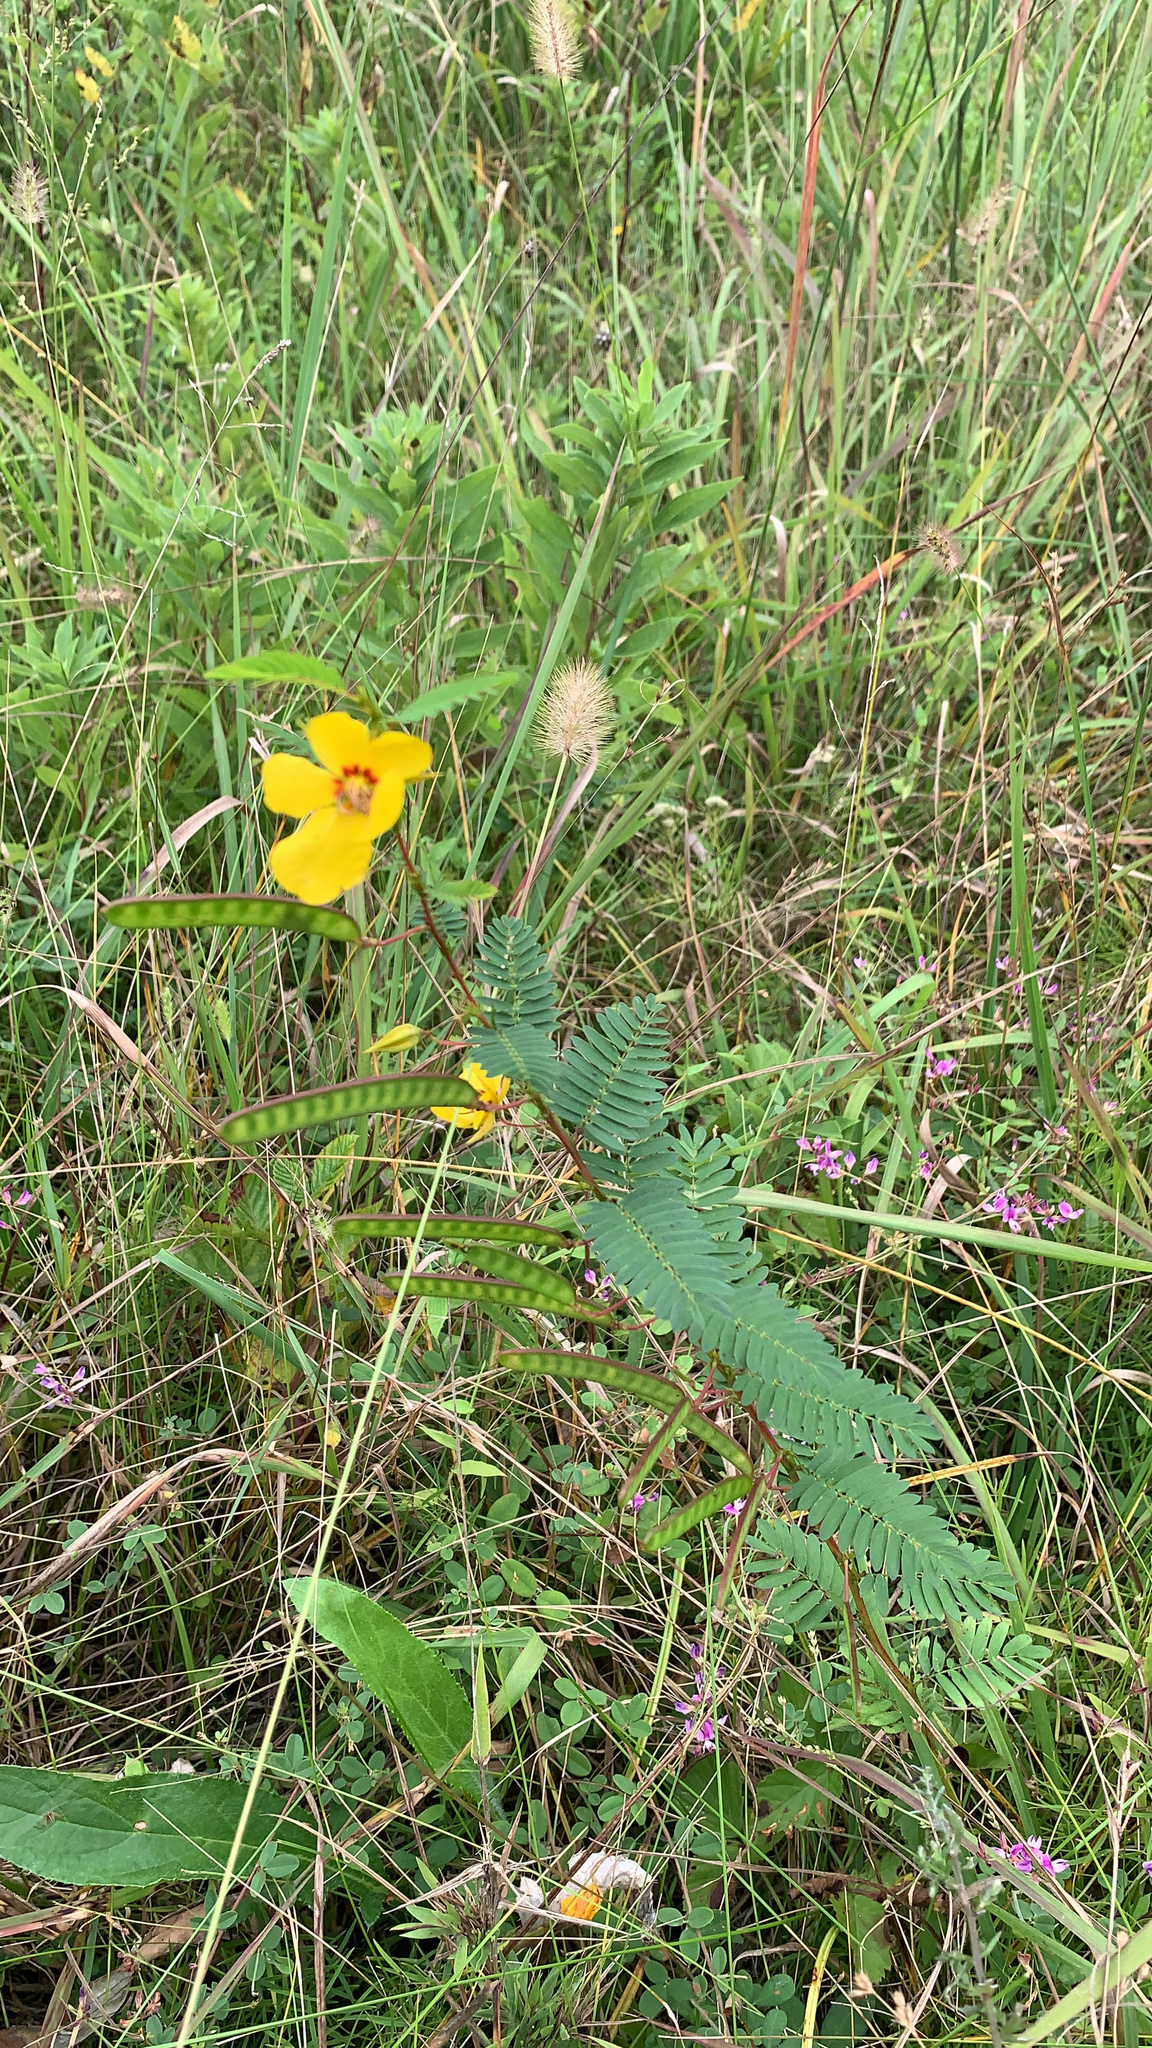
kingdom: Plantae
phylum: Tracheophyta
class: Magnoliopsida
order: Fabales
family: Fabaceae
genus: Chamaecrista
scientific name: Chamaecrista fasciculata
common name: Golden cassia
